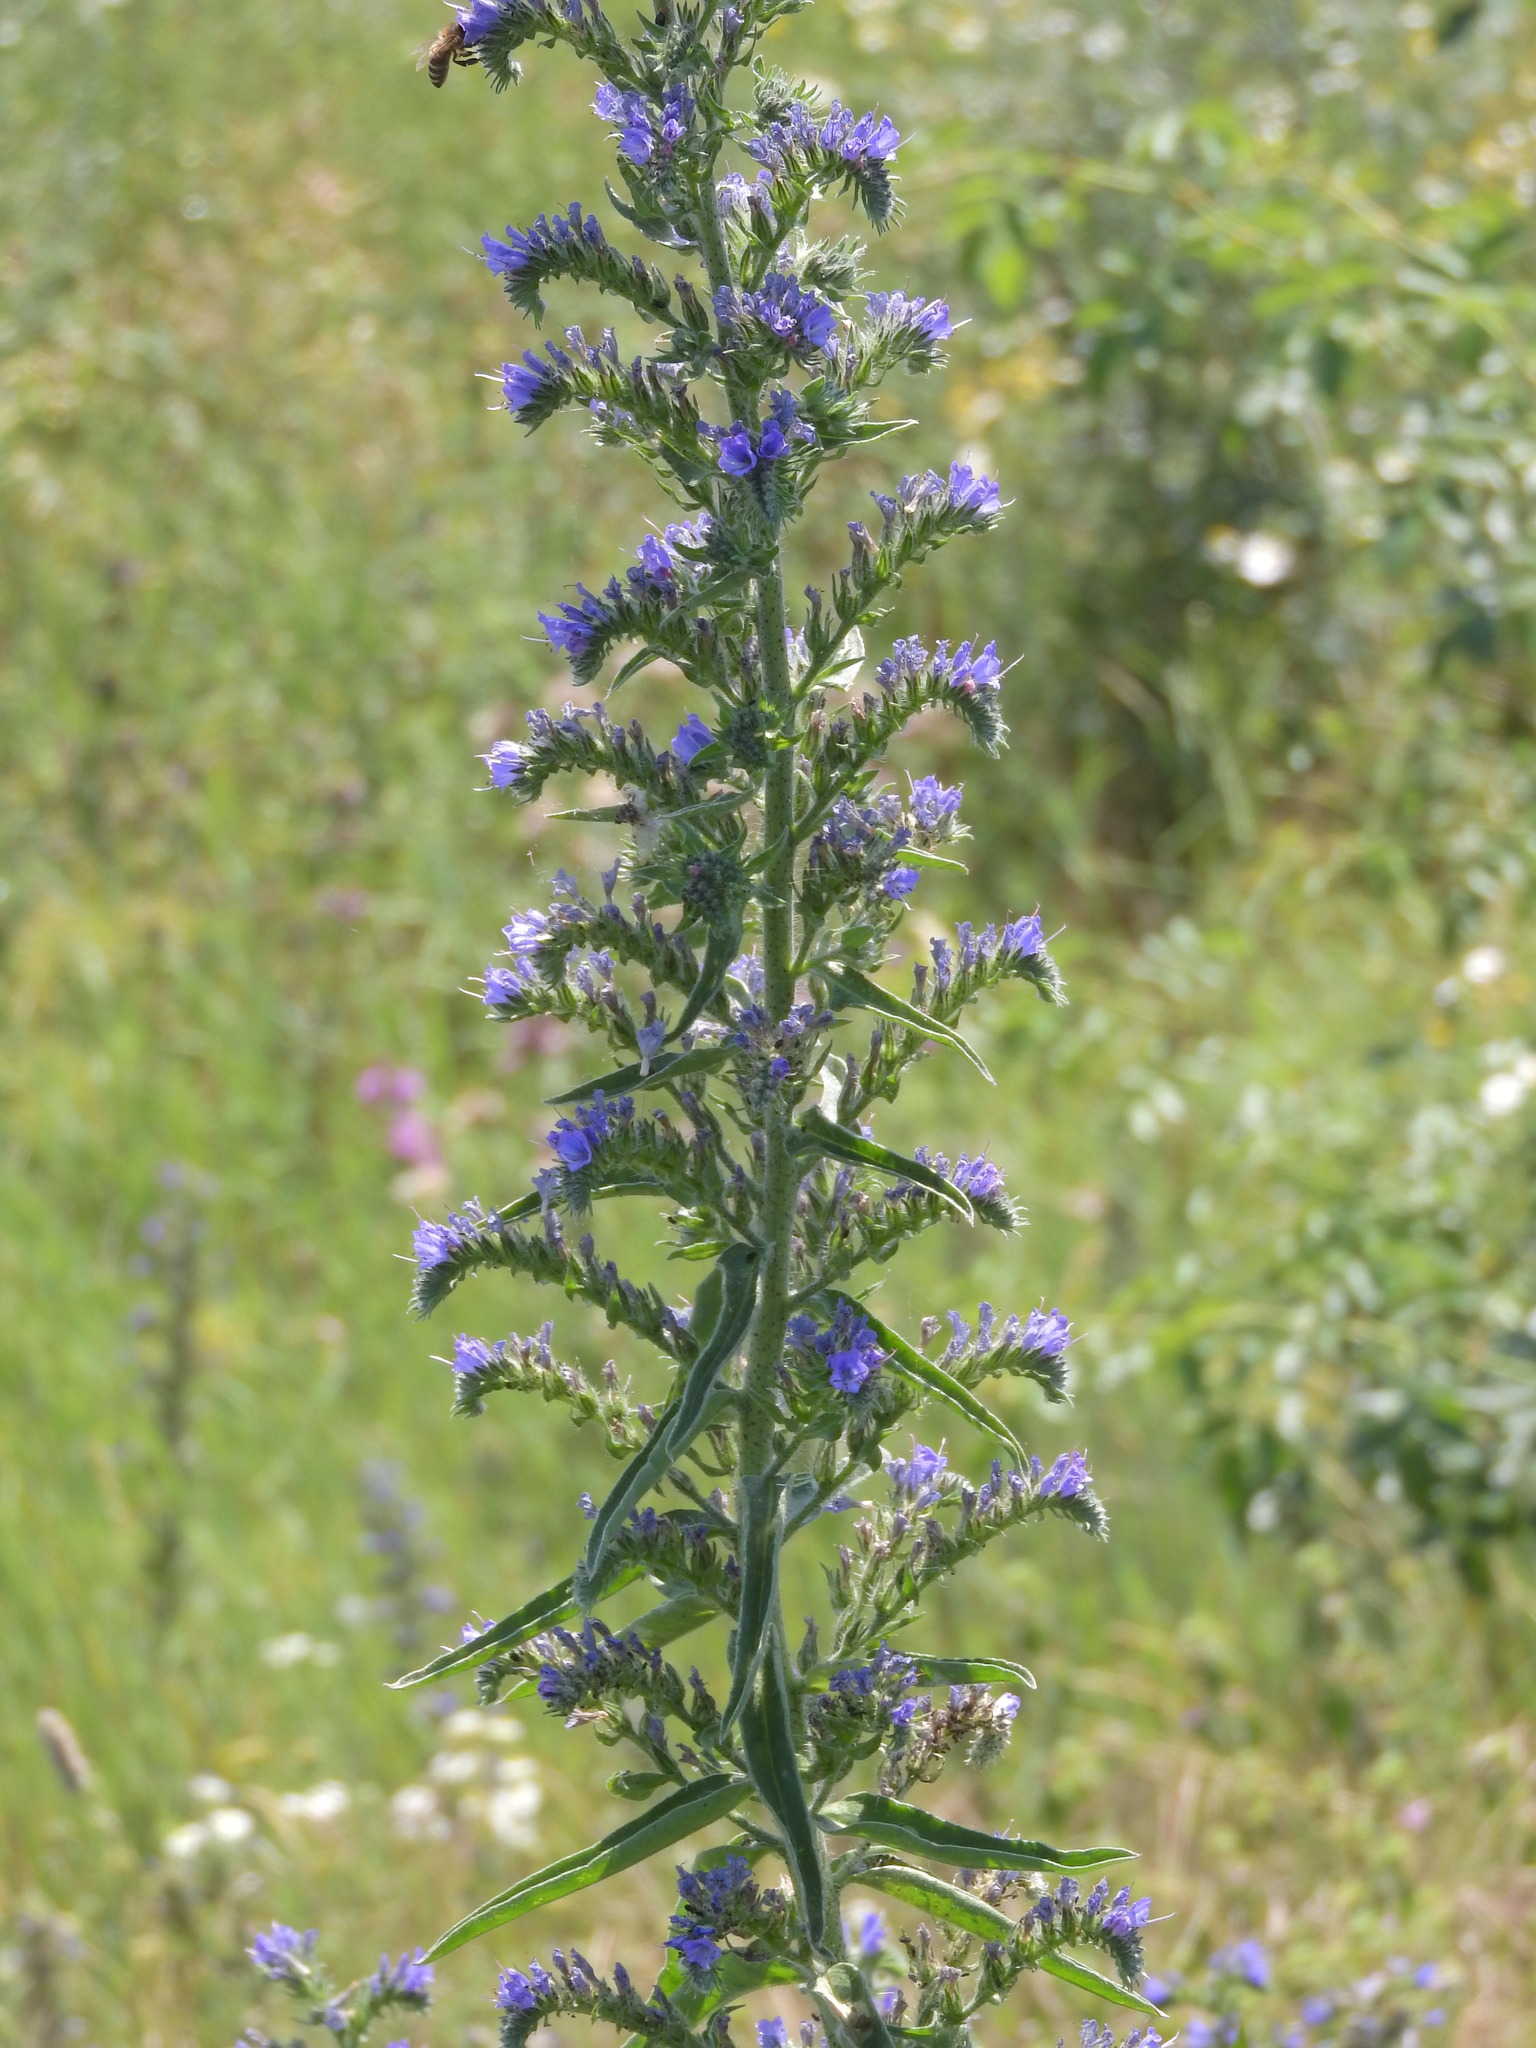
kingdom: Plantae
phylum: Tracheophyta
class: Magnoliopsida
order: Boraginales
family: Boraginaceae
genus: Echium
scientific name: Echium vulgare
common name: Common viper's bugloss
